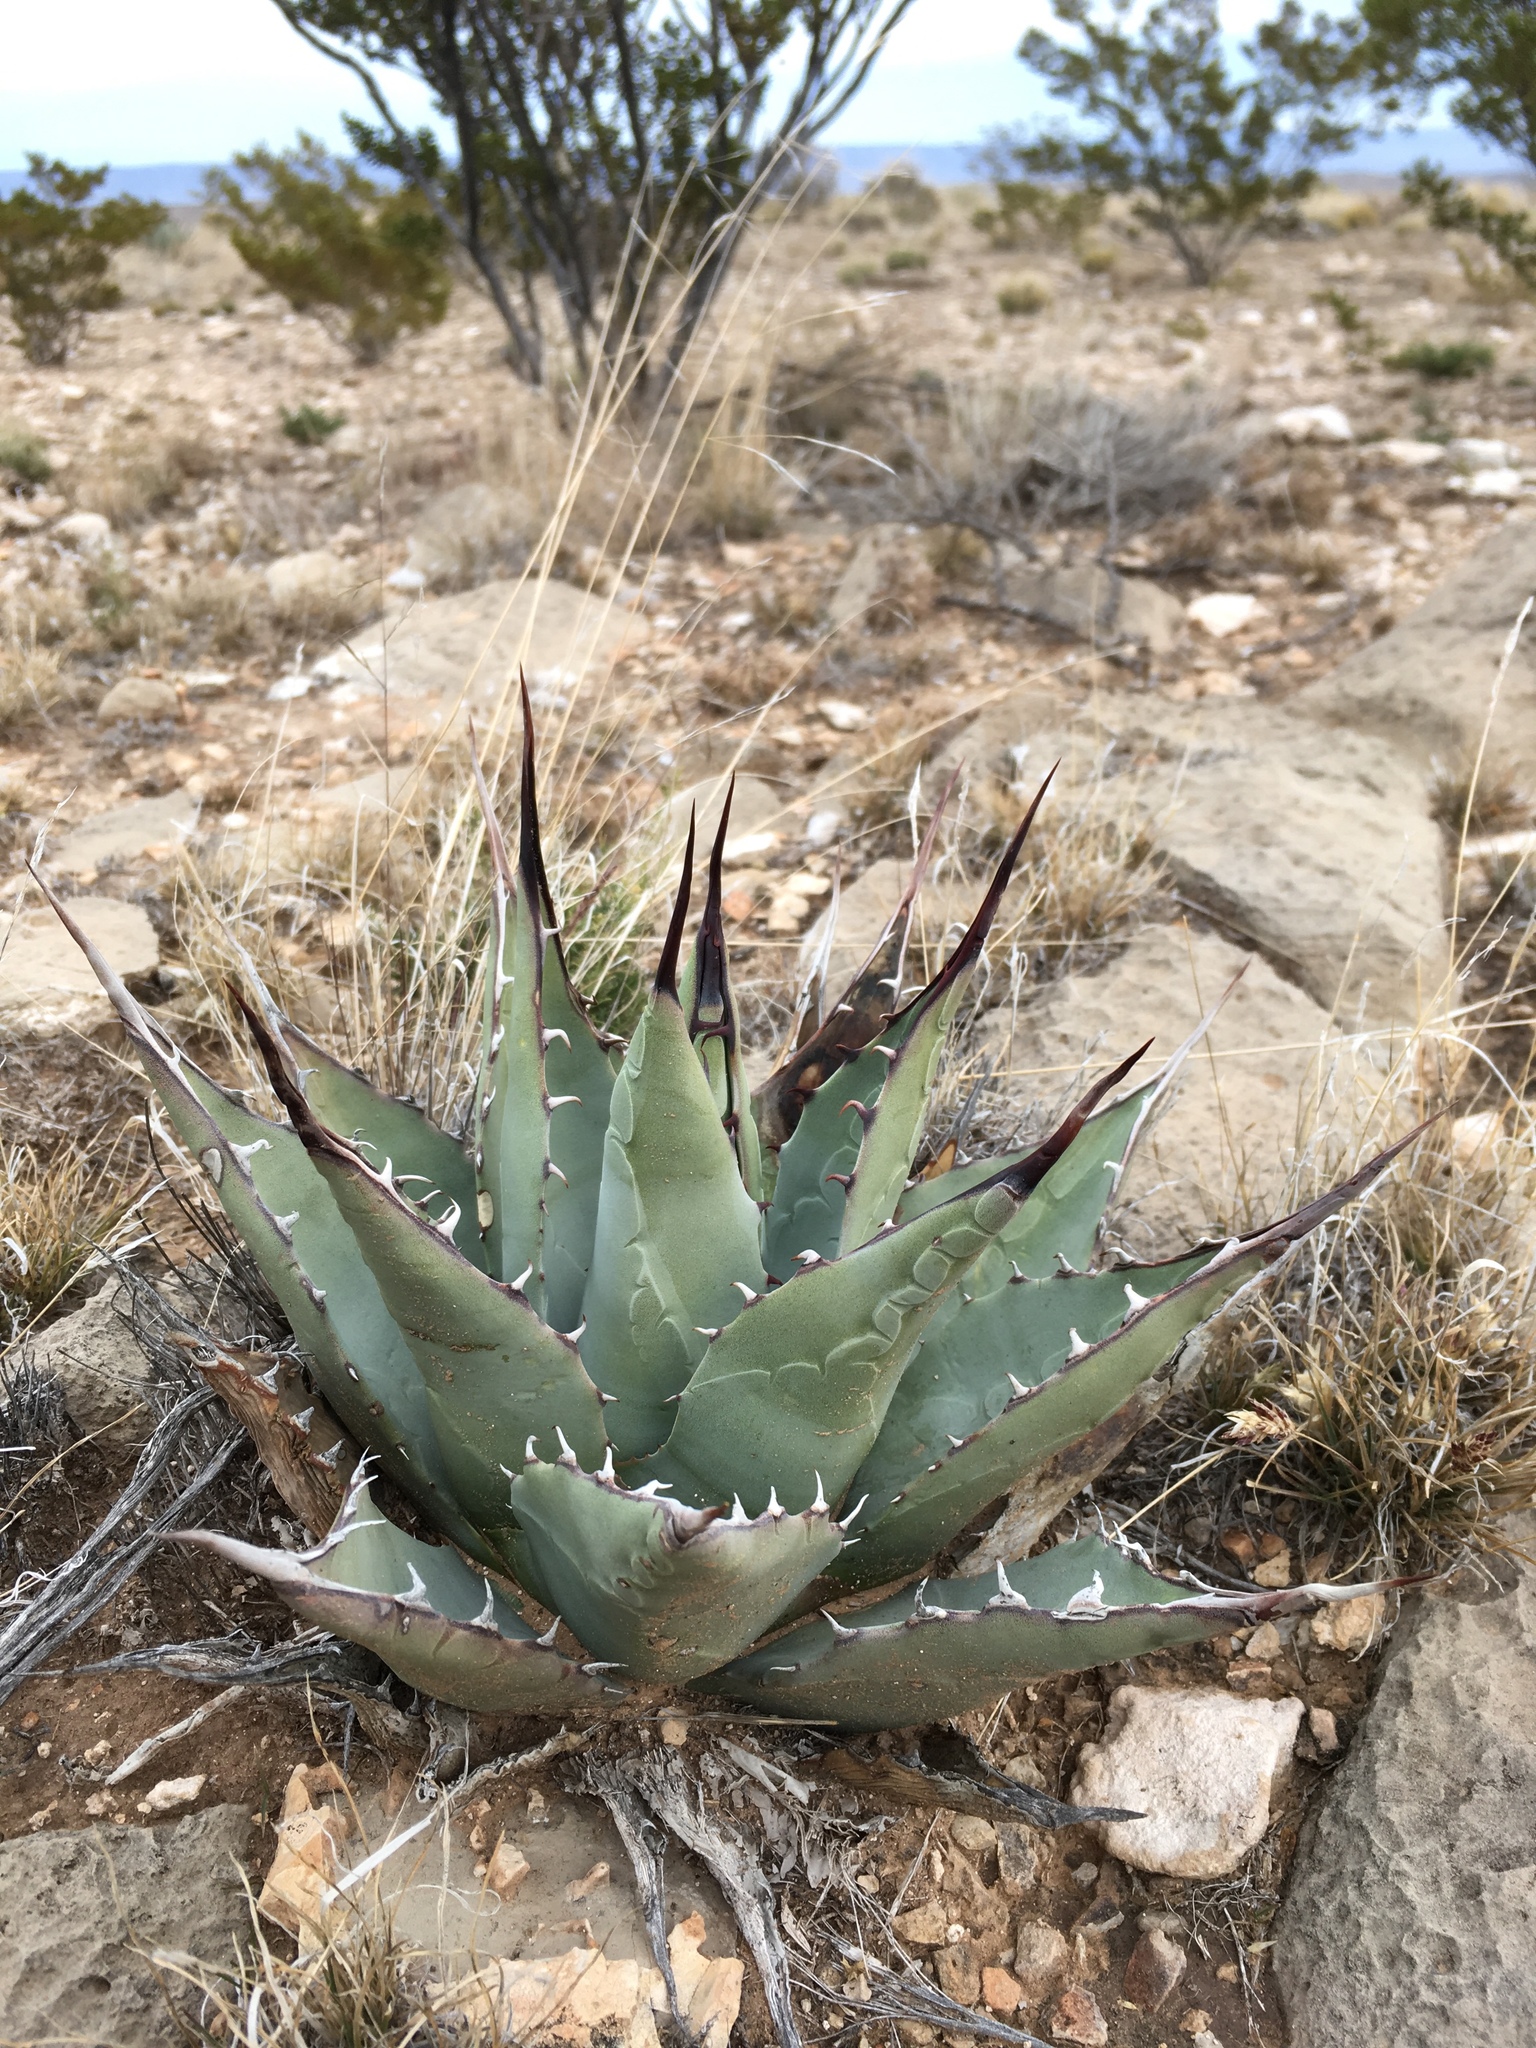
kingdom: Plantae
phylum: Tracheophyta
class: Liliopsida
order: Asparagales
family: Asparagaceae
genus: Agave
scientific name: Agave parryi
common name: Parry's agave
